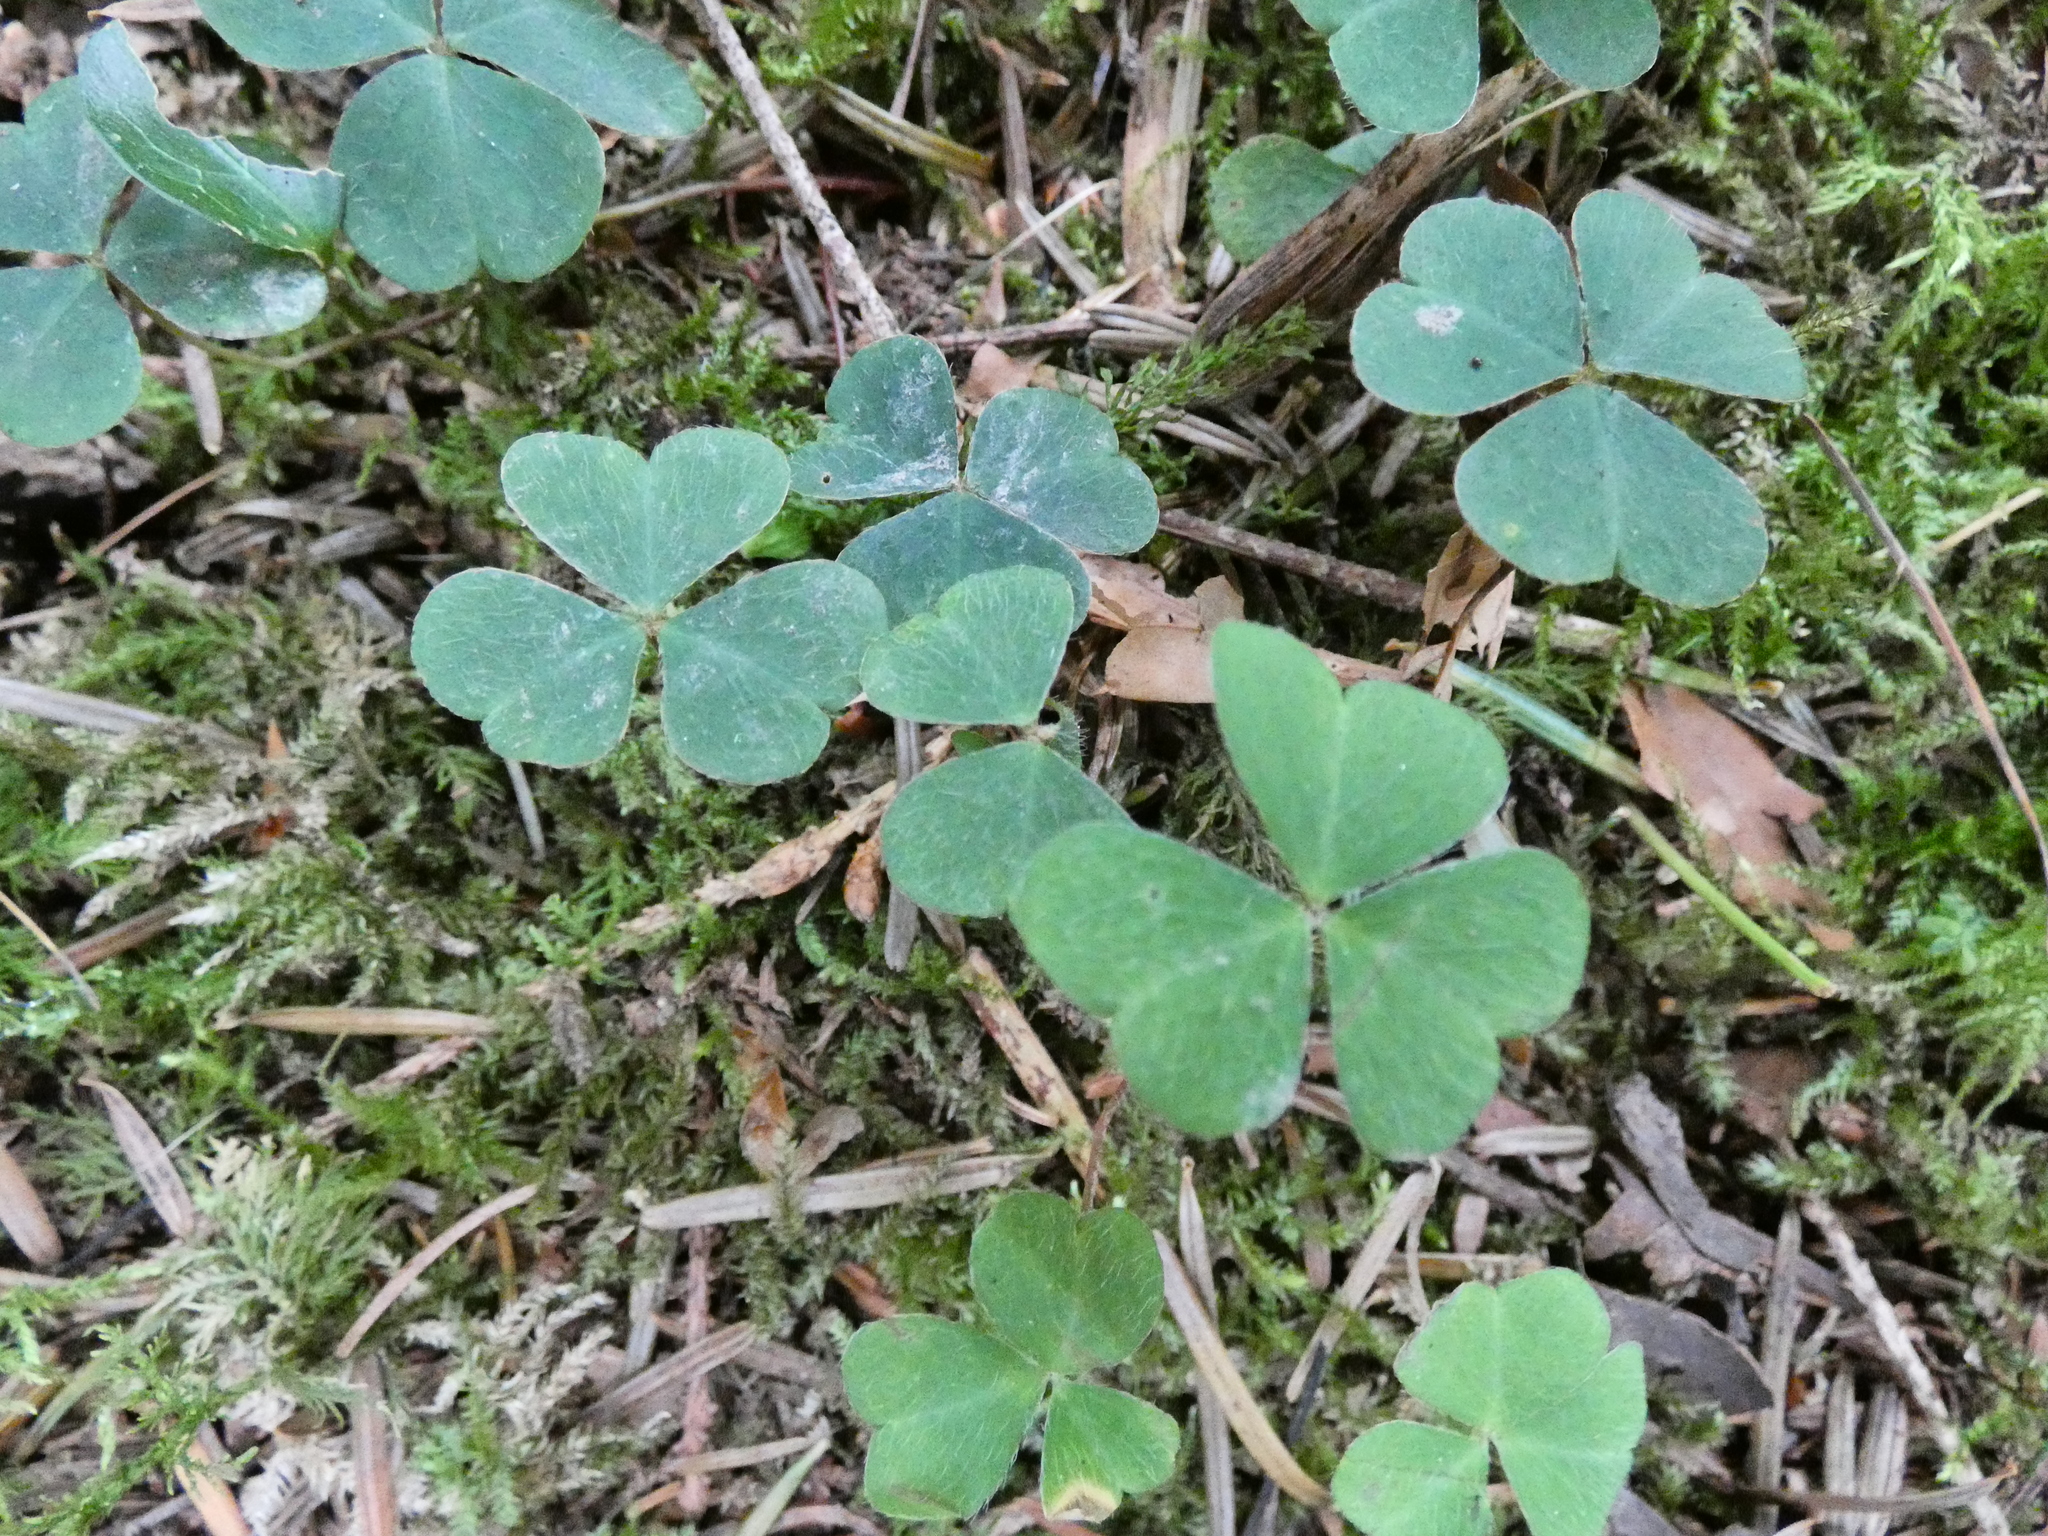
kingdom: Plantae
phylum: Tracheophyta
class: Magnoliopsida
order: Oxalidales
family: Oxalidaceae
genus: Oxalis
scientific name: Oxalis acetosella
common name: Wood-sorrel
